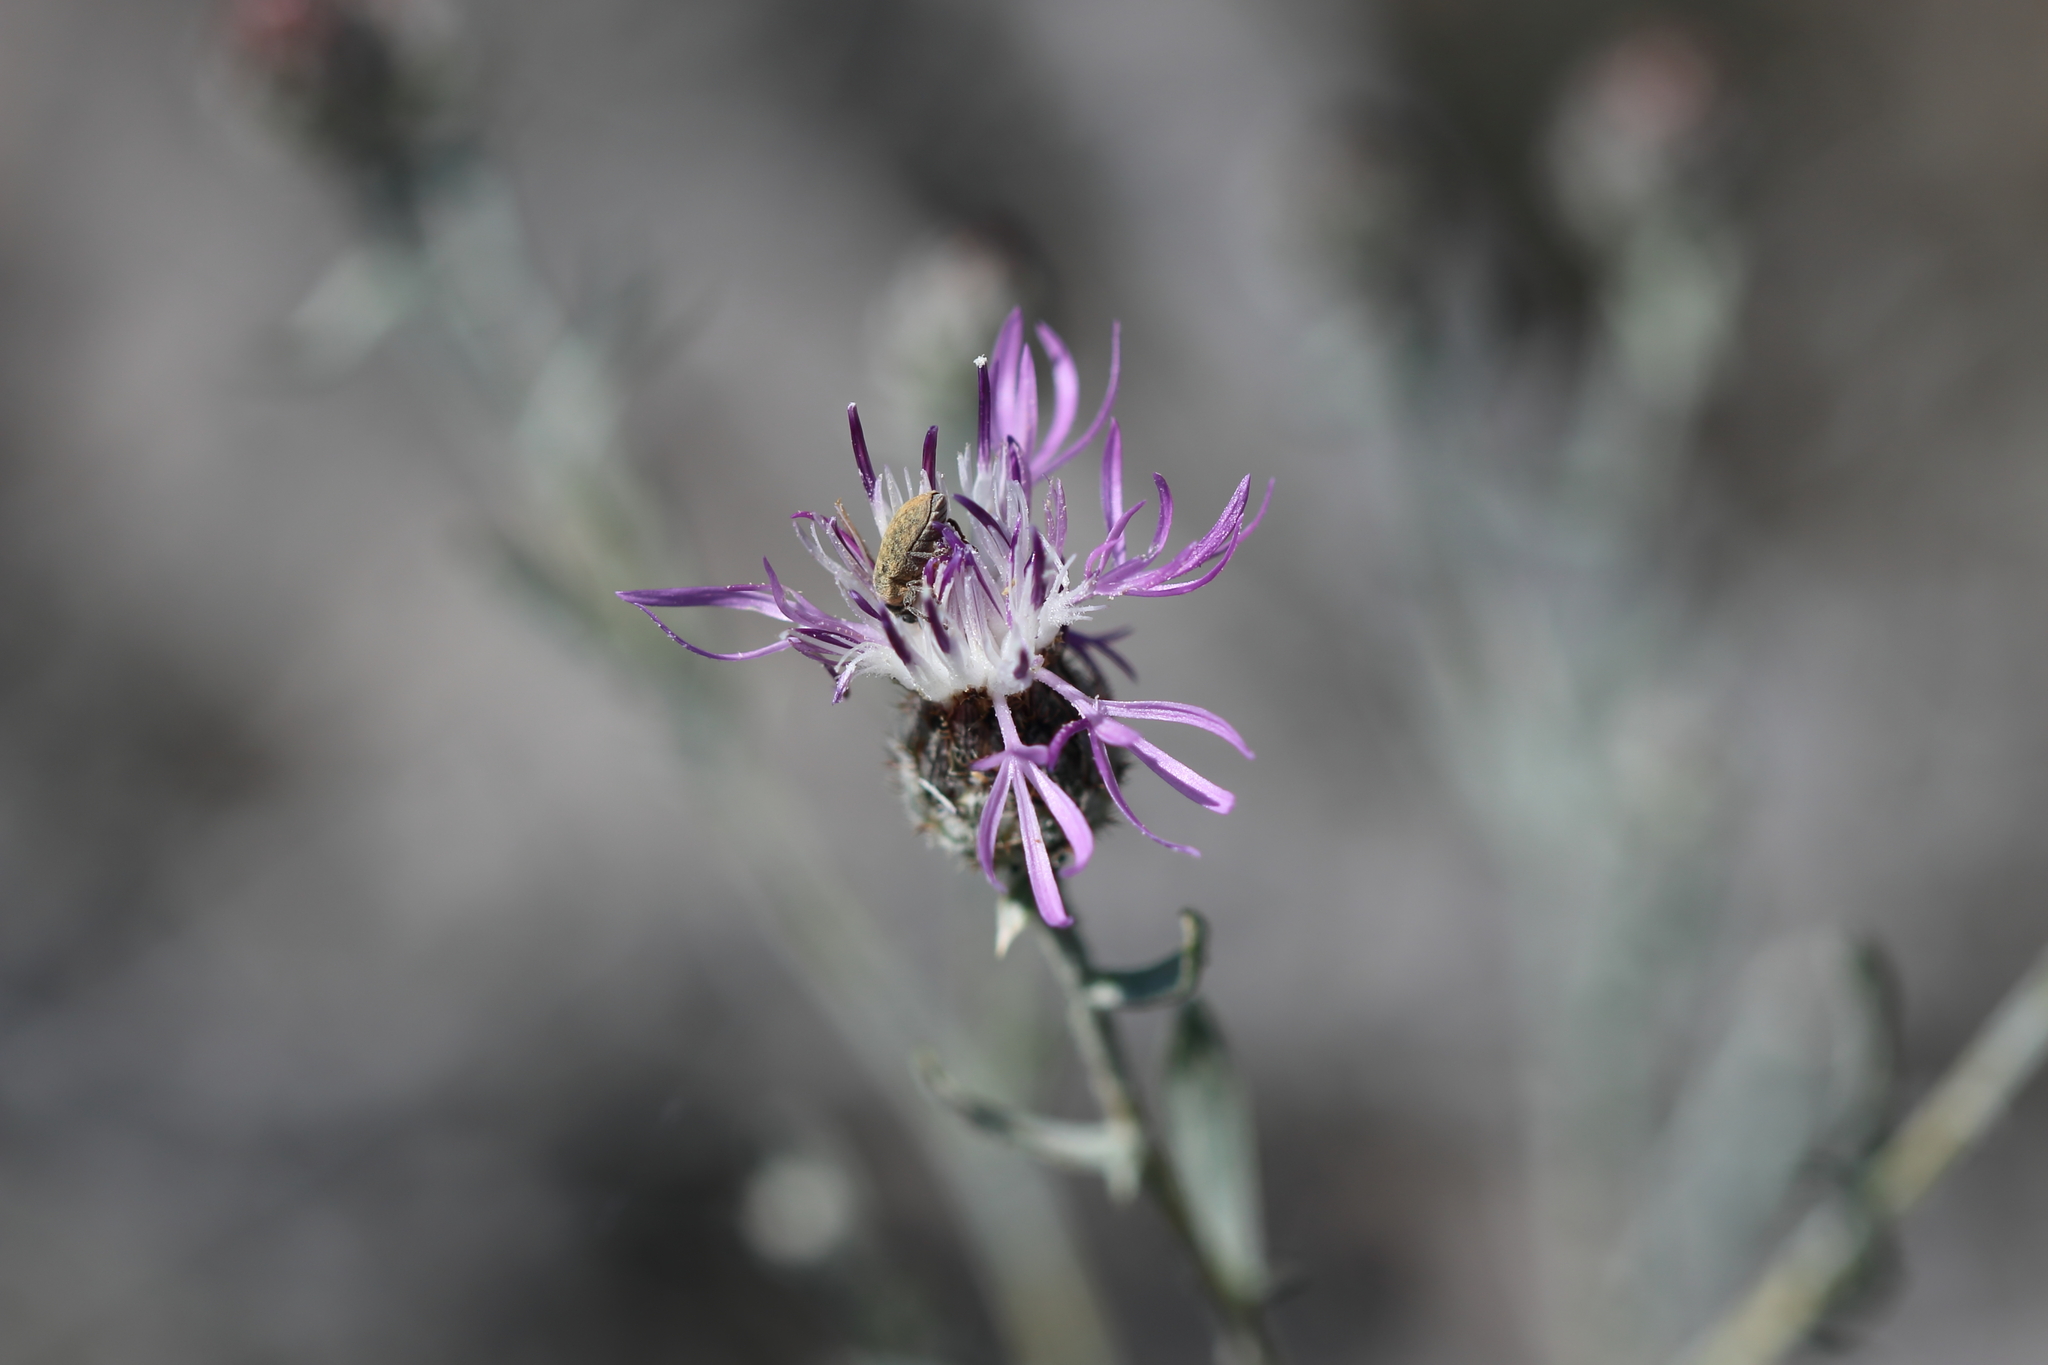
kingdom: Animalia
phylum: Arthropoda
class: Insecta
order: Coleoptera
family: Curculionidae
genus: Larinus
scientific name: Larinus minutus
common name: Weevil
